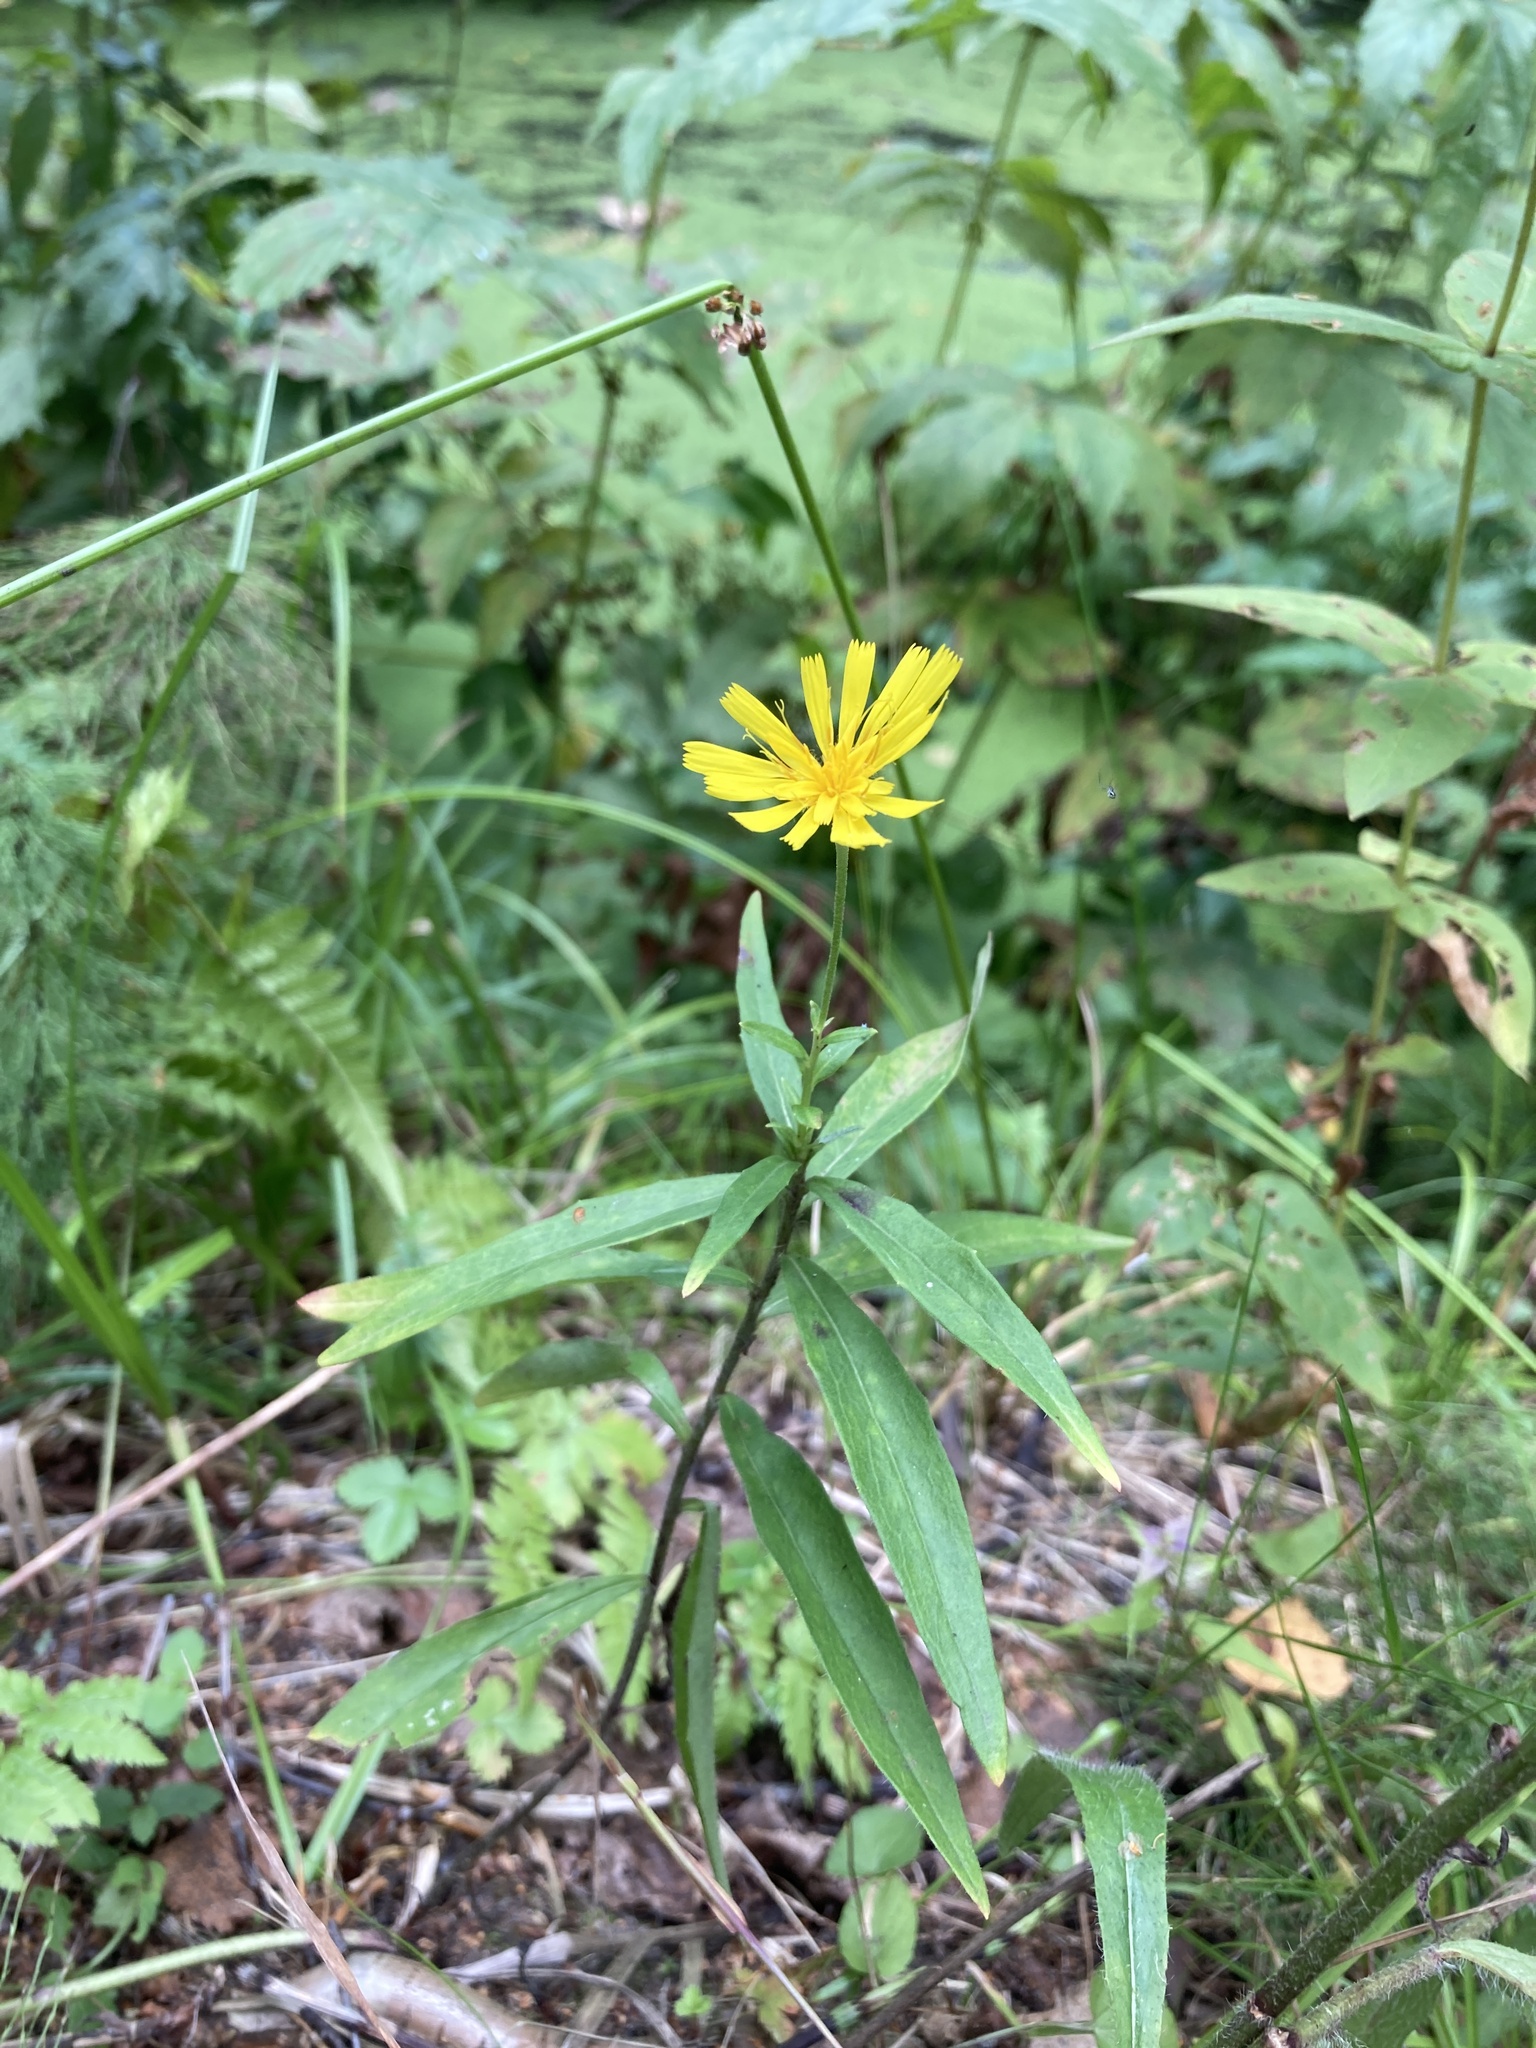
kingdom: Plantae
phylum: Tracheophyta
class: Magnoliopsida
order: Asterales
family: Asteraceae
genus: Hieracium
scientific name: Hieracium umbellatum
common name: Northern hawkweed
